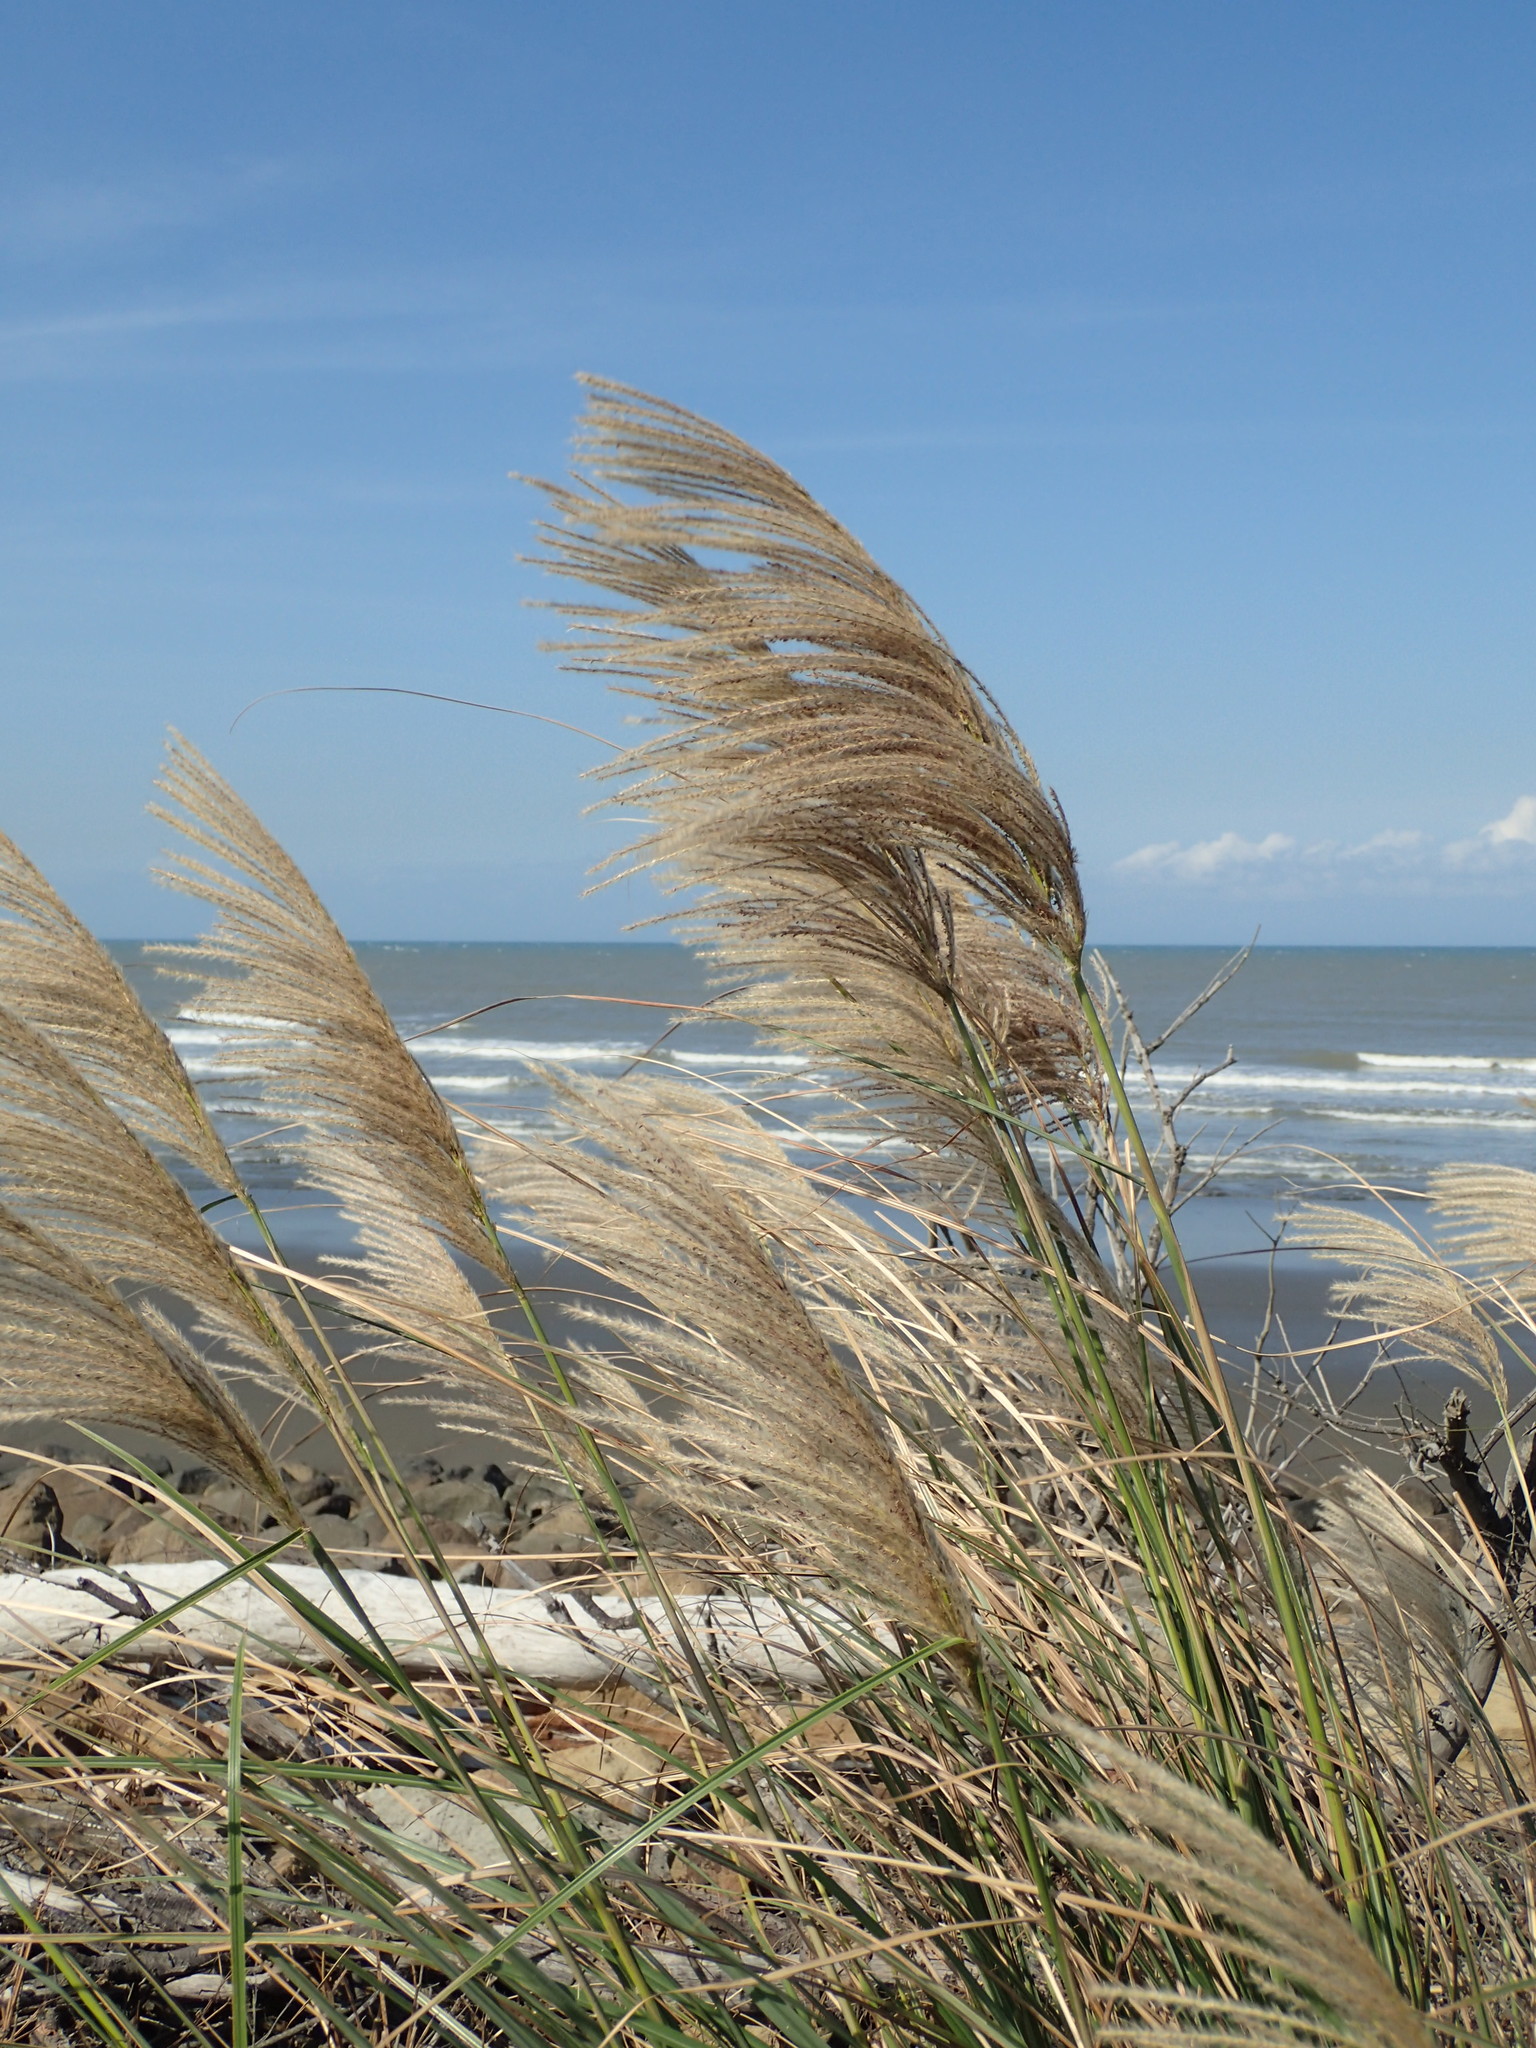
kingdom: Plantae
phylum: Tracheophyta
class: Liliopsida
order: Poales
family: Poaceae
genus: Miscanthus
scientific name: Miscanthus sinensis
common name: Chinese silvergrass
